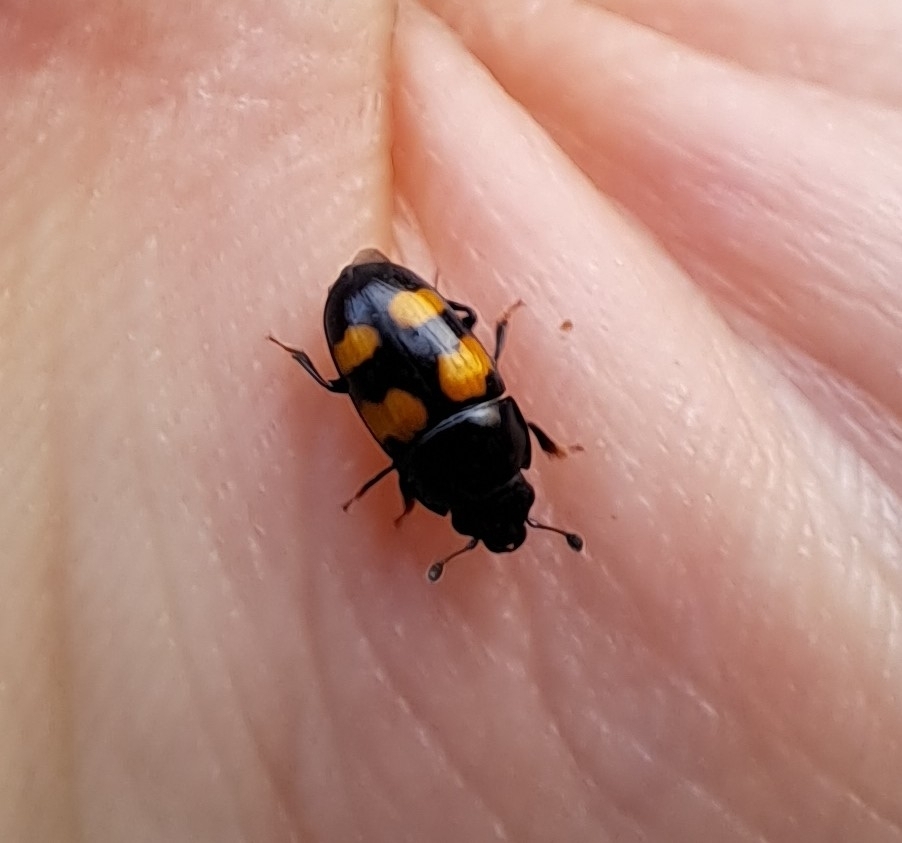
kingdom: Animalia
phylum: Arthropoda
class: Insecta
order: Coleoptera
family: Nitidulidae
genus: Glischrochilus
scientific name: Glischrochilus grandis
